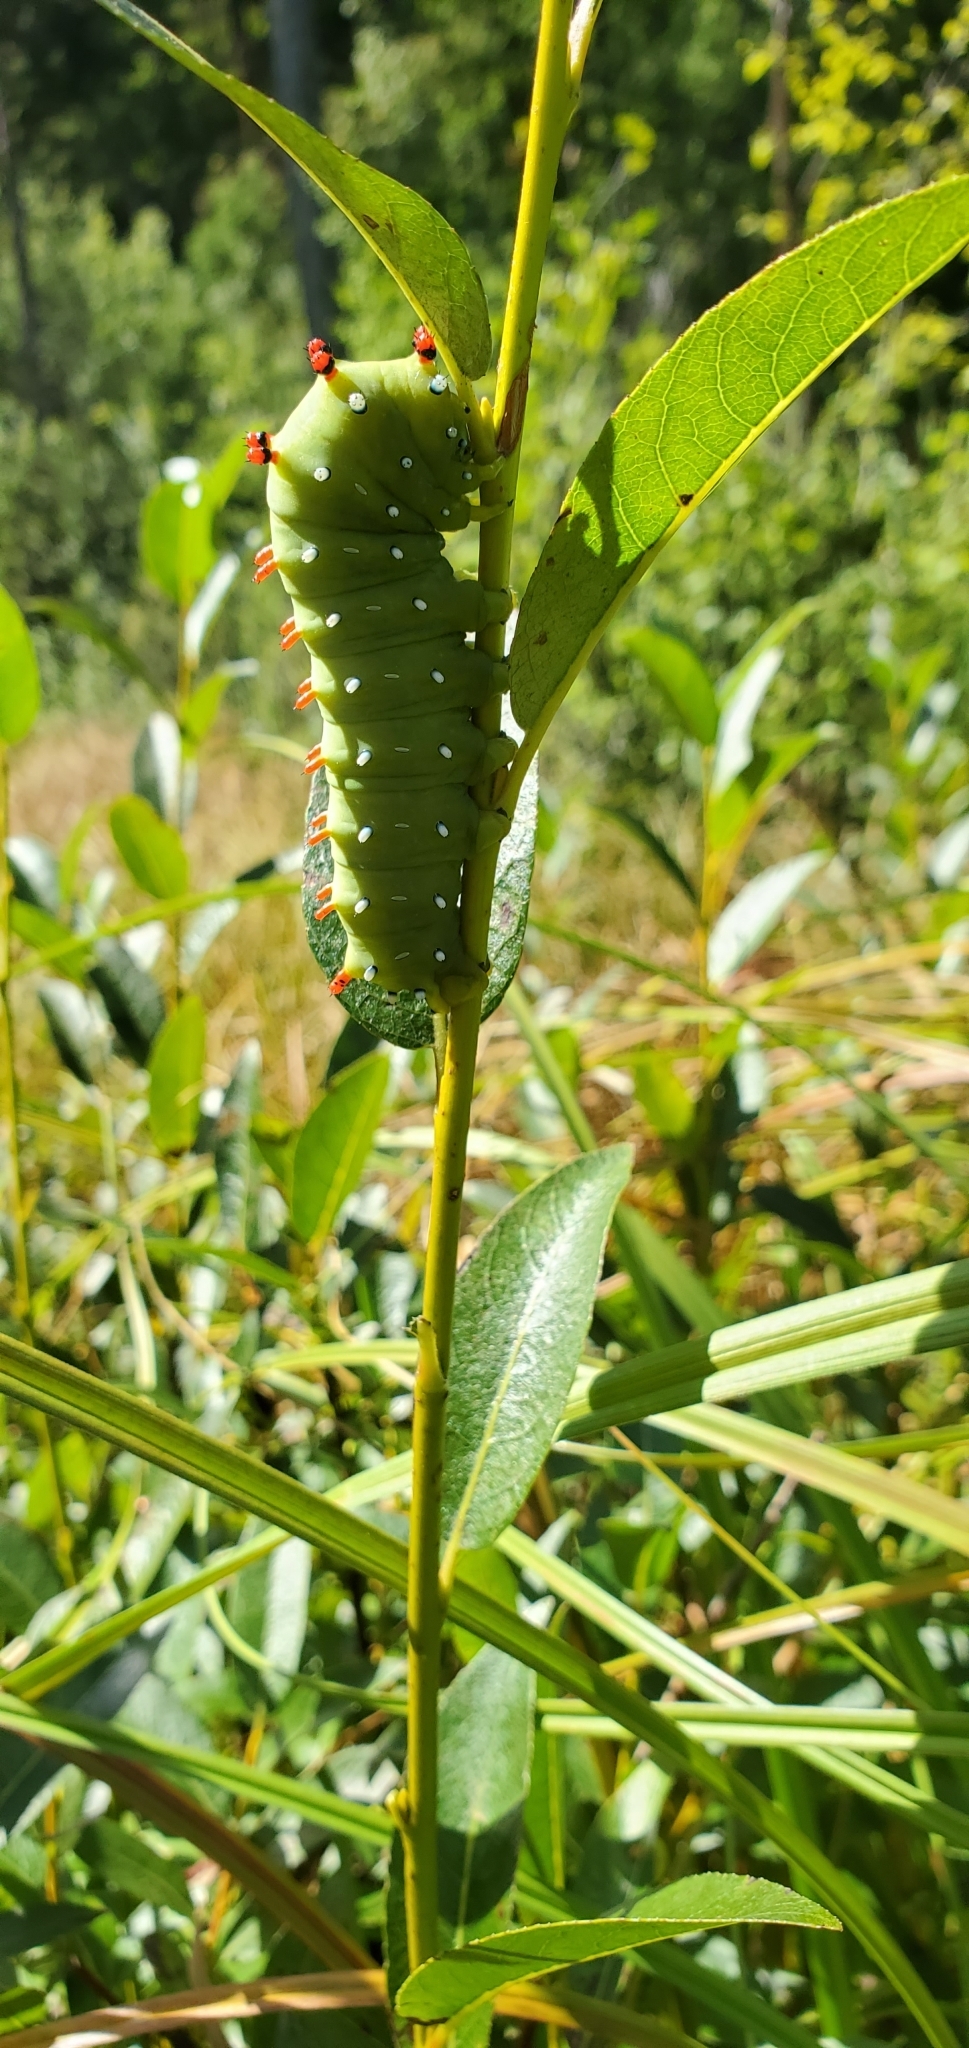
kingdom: Animalia
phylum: Arthropoda
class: Insecta
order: Lepidoptera
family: Saturniidae
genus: Hyalophora
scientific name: Hyalophora euryalus
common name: Ceanothus silkmoth
